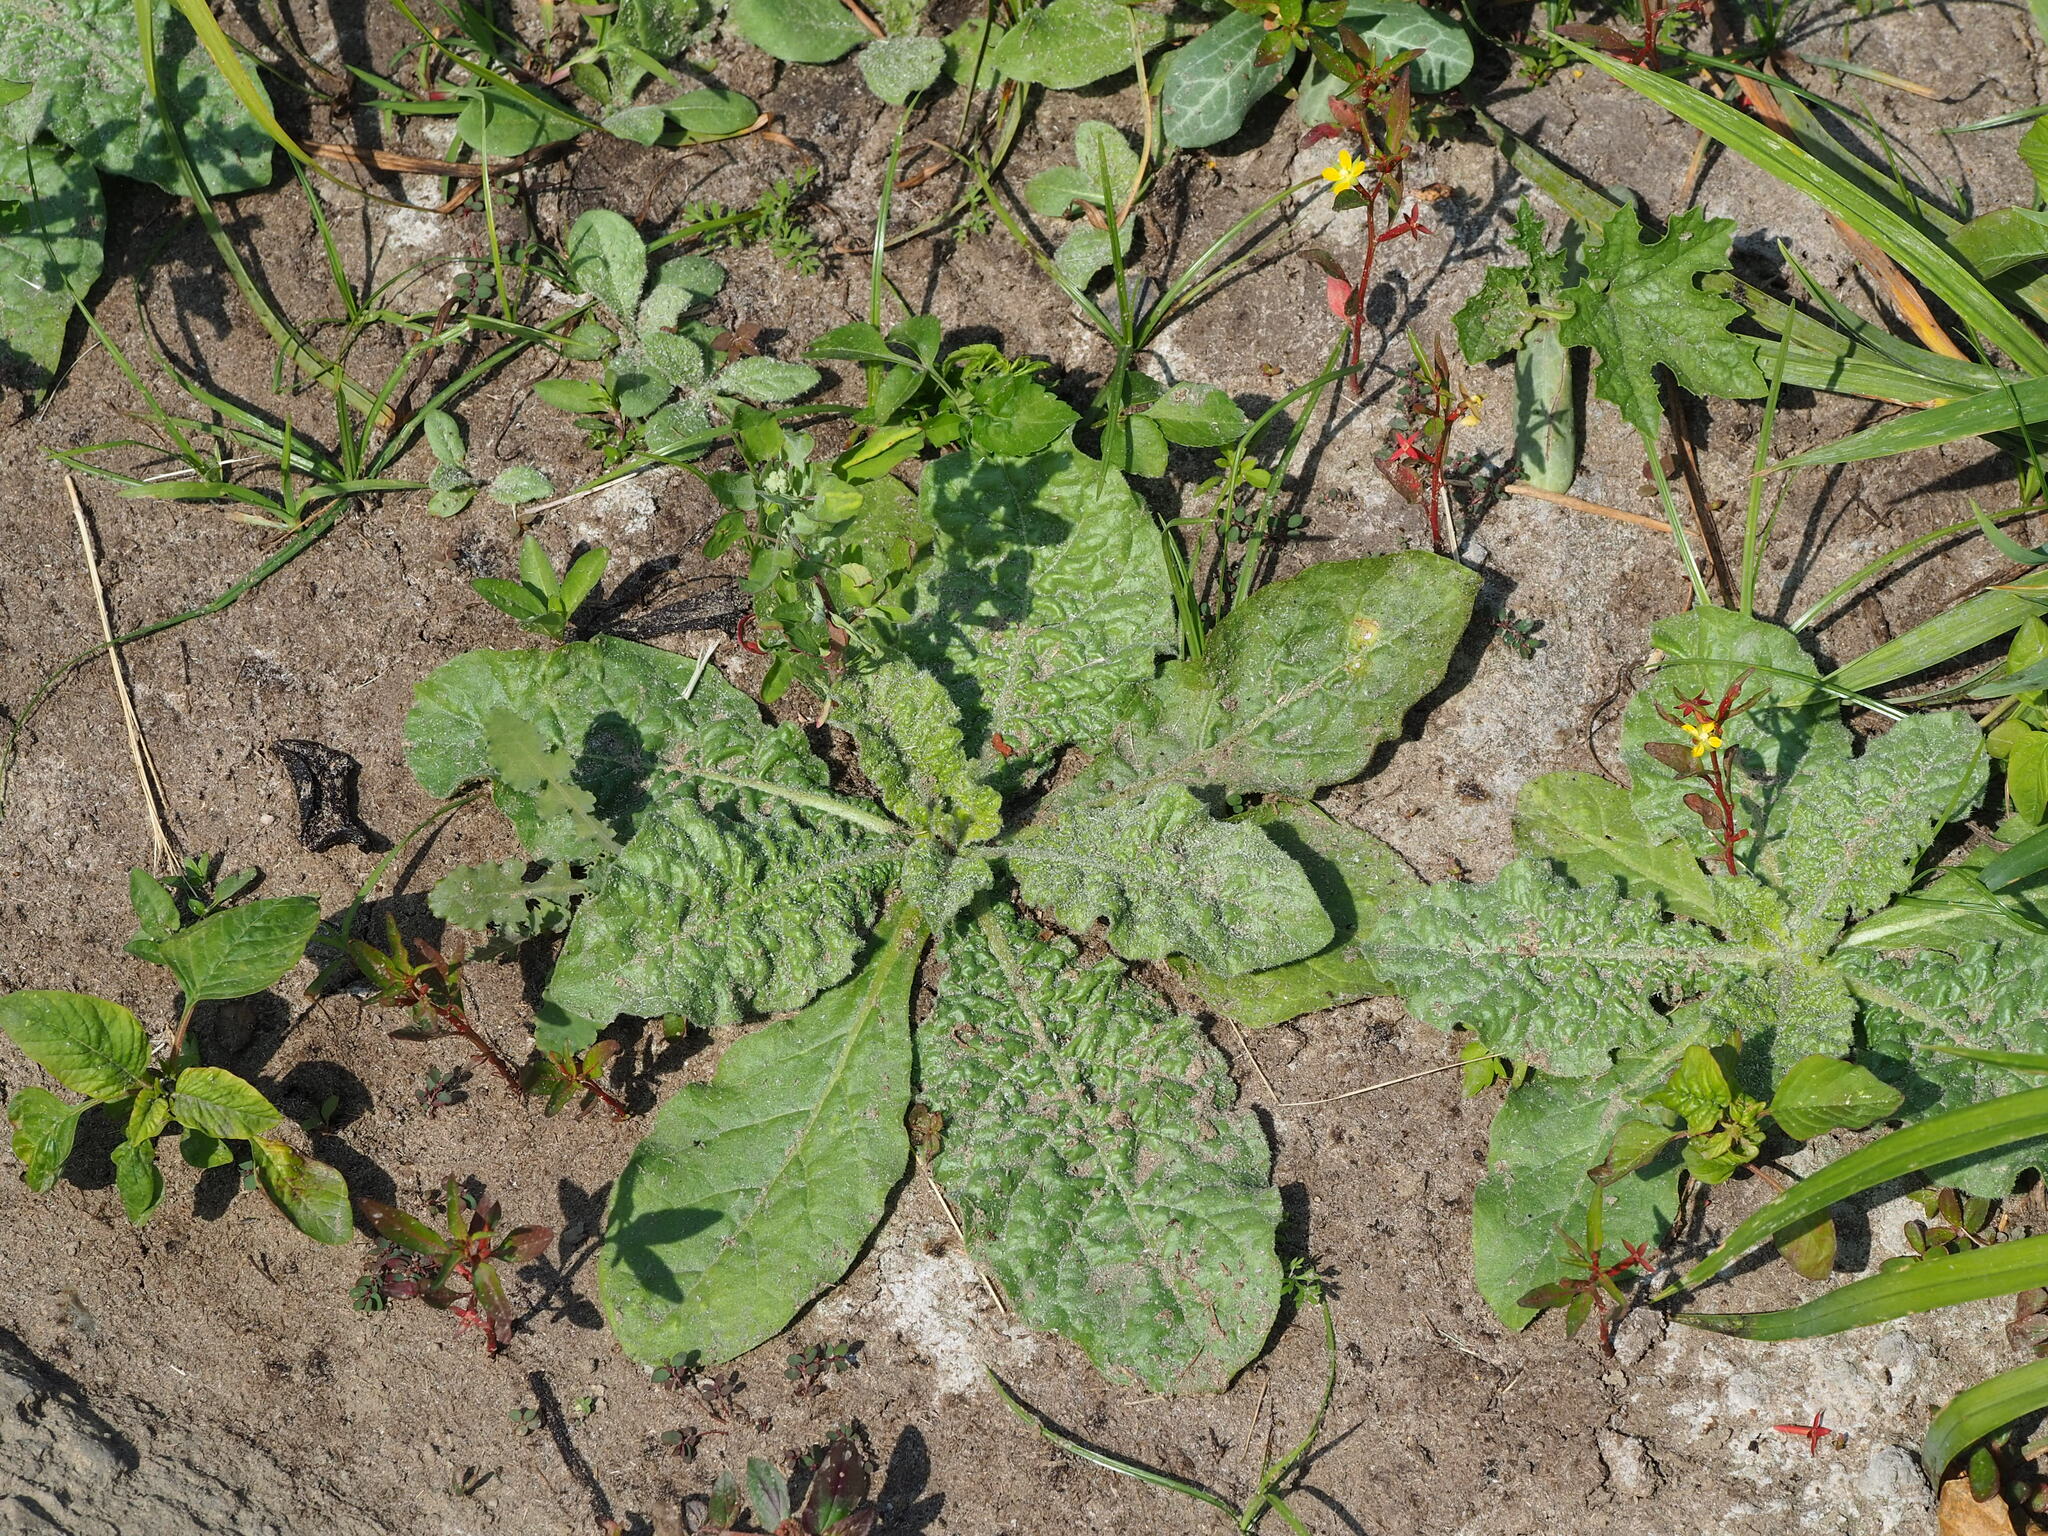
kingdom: Plantae
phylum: Tracheophyta
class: Magnoliopsida
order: Solanales
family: Solanaceae
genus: Nicotiana
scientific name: Nicotiana plumbaginifolia
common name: Tex-mex tobacco
